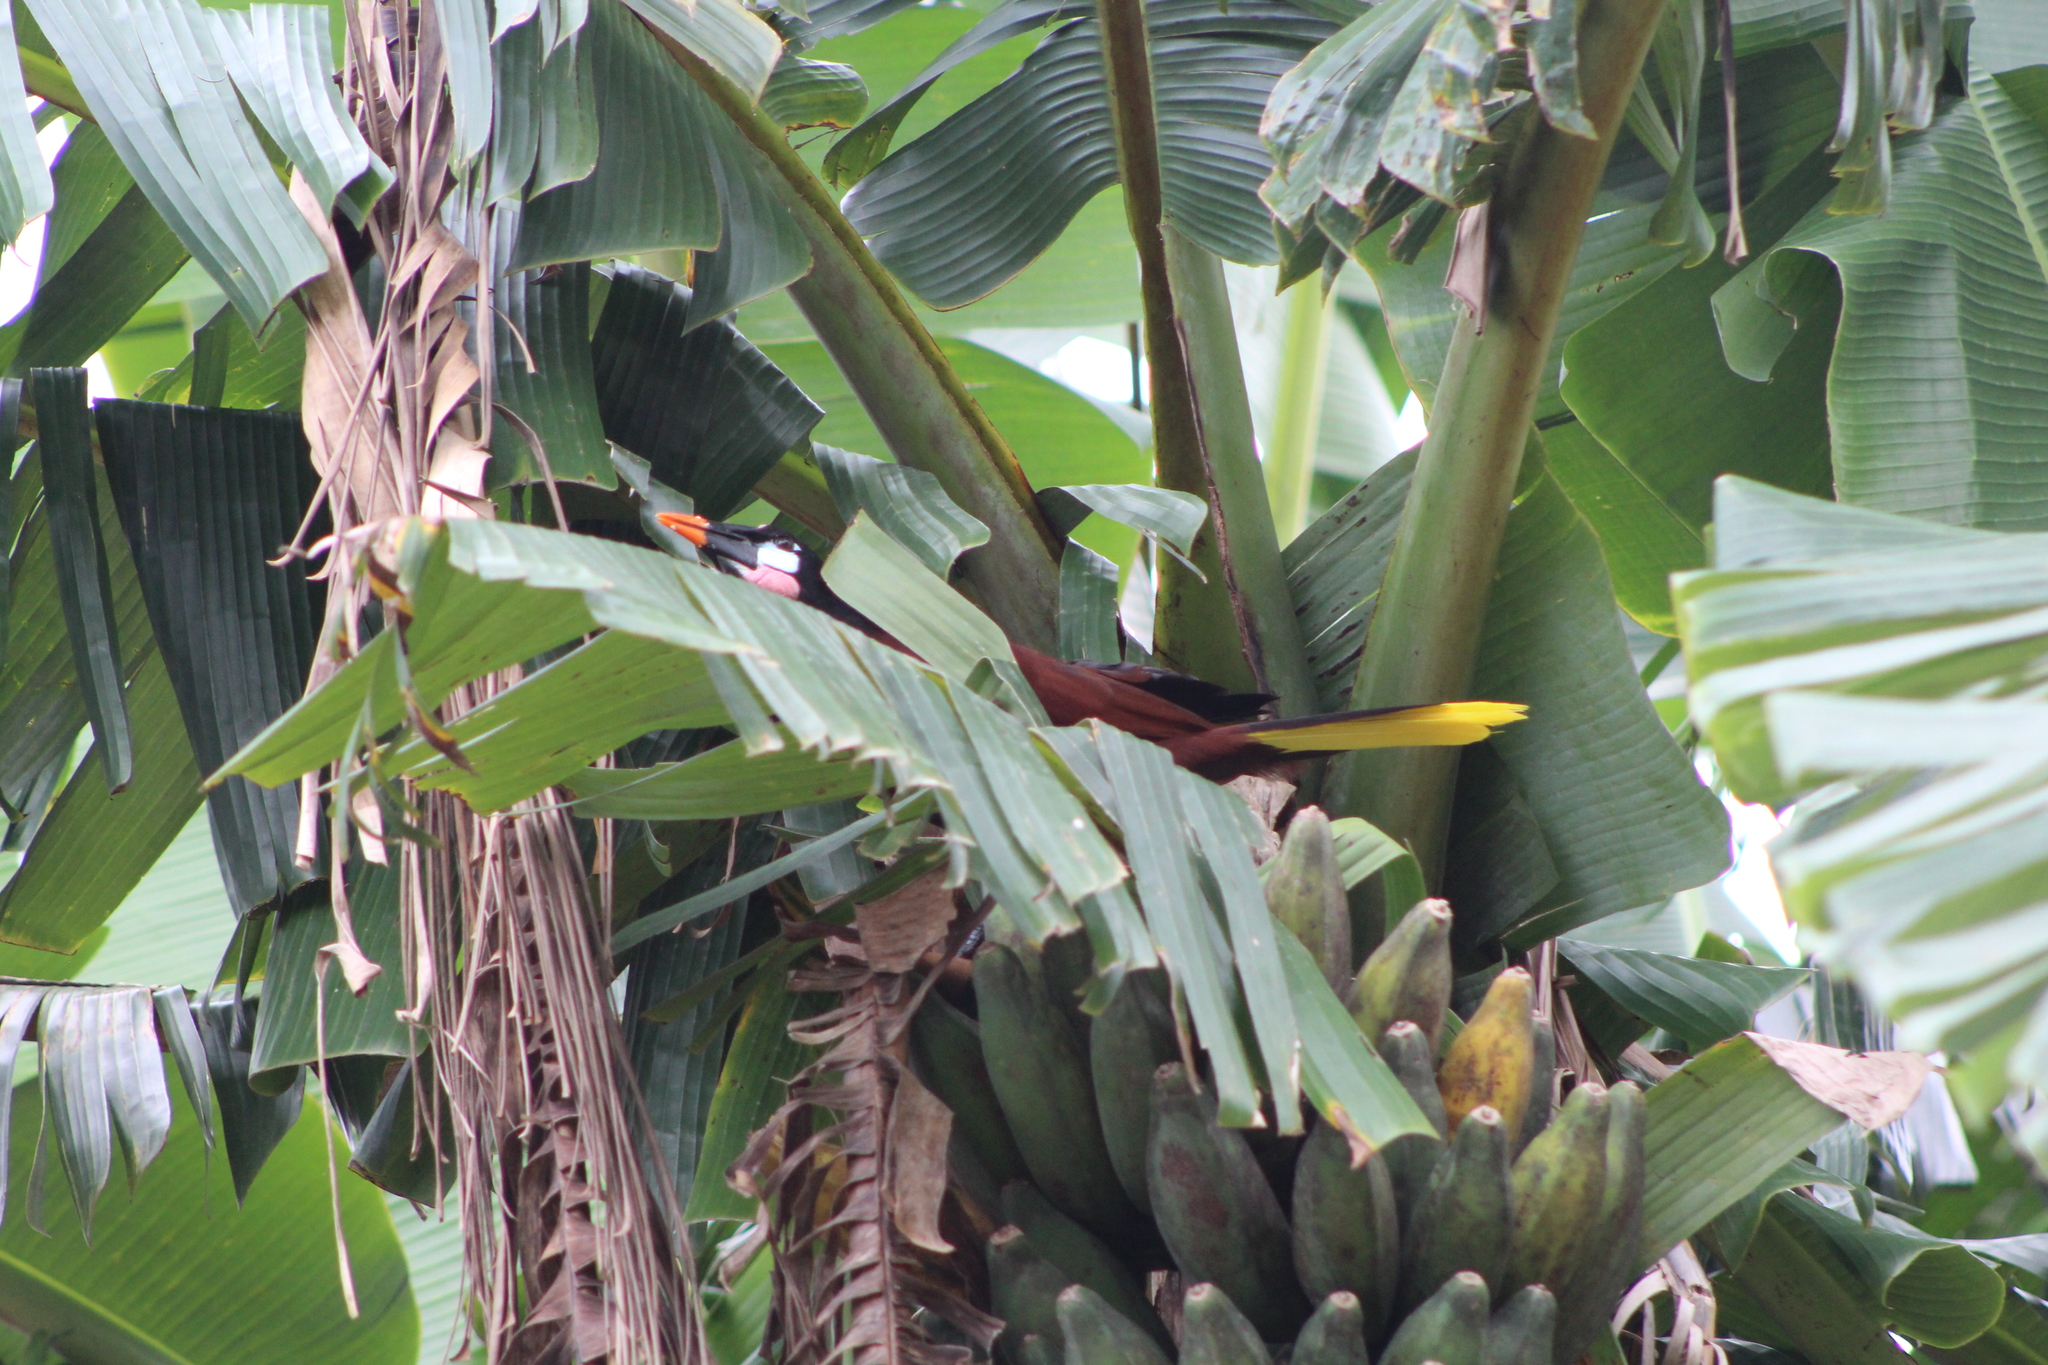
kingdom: Animalia
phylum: Chordata
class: Aves
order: Passeriformes
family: Icteridae
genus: Psarocolius
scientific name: Psarocolius montezuma
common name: Montezuma oropendola
